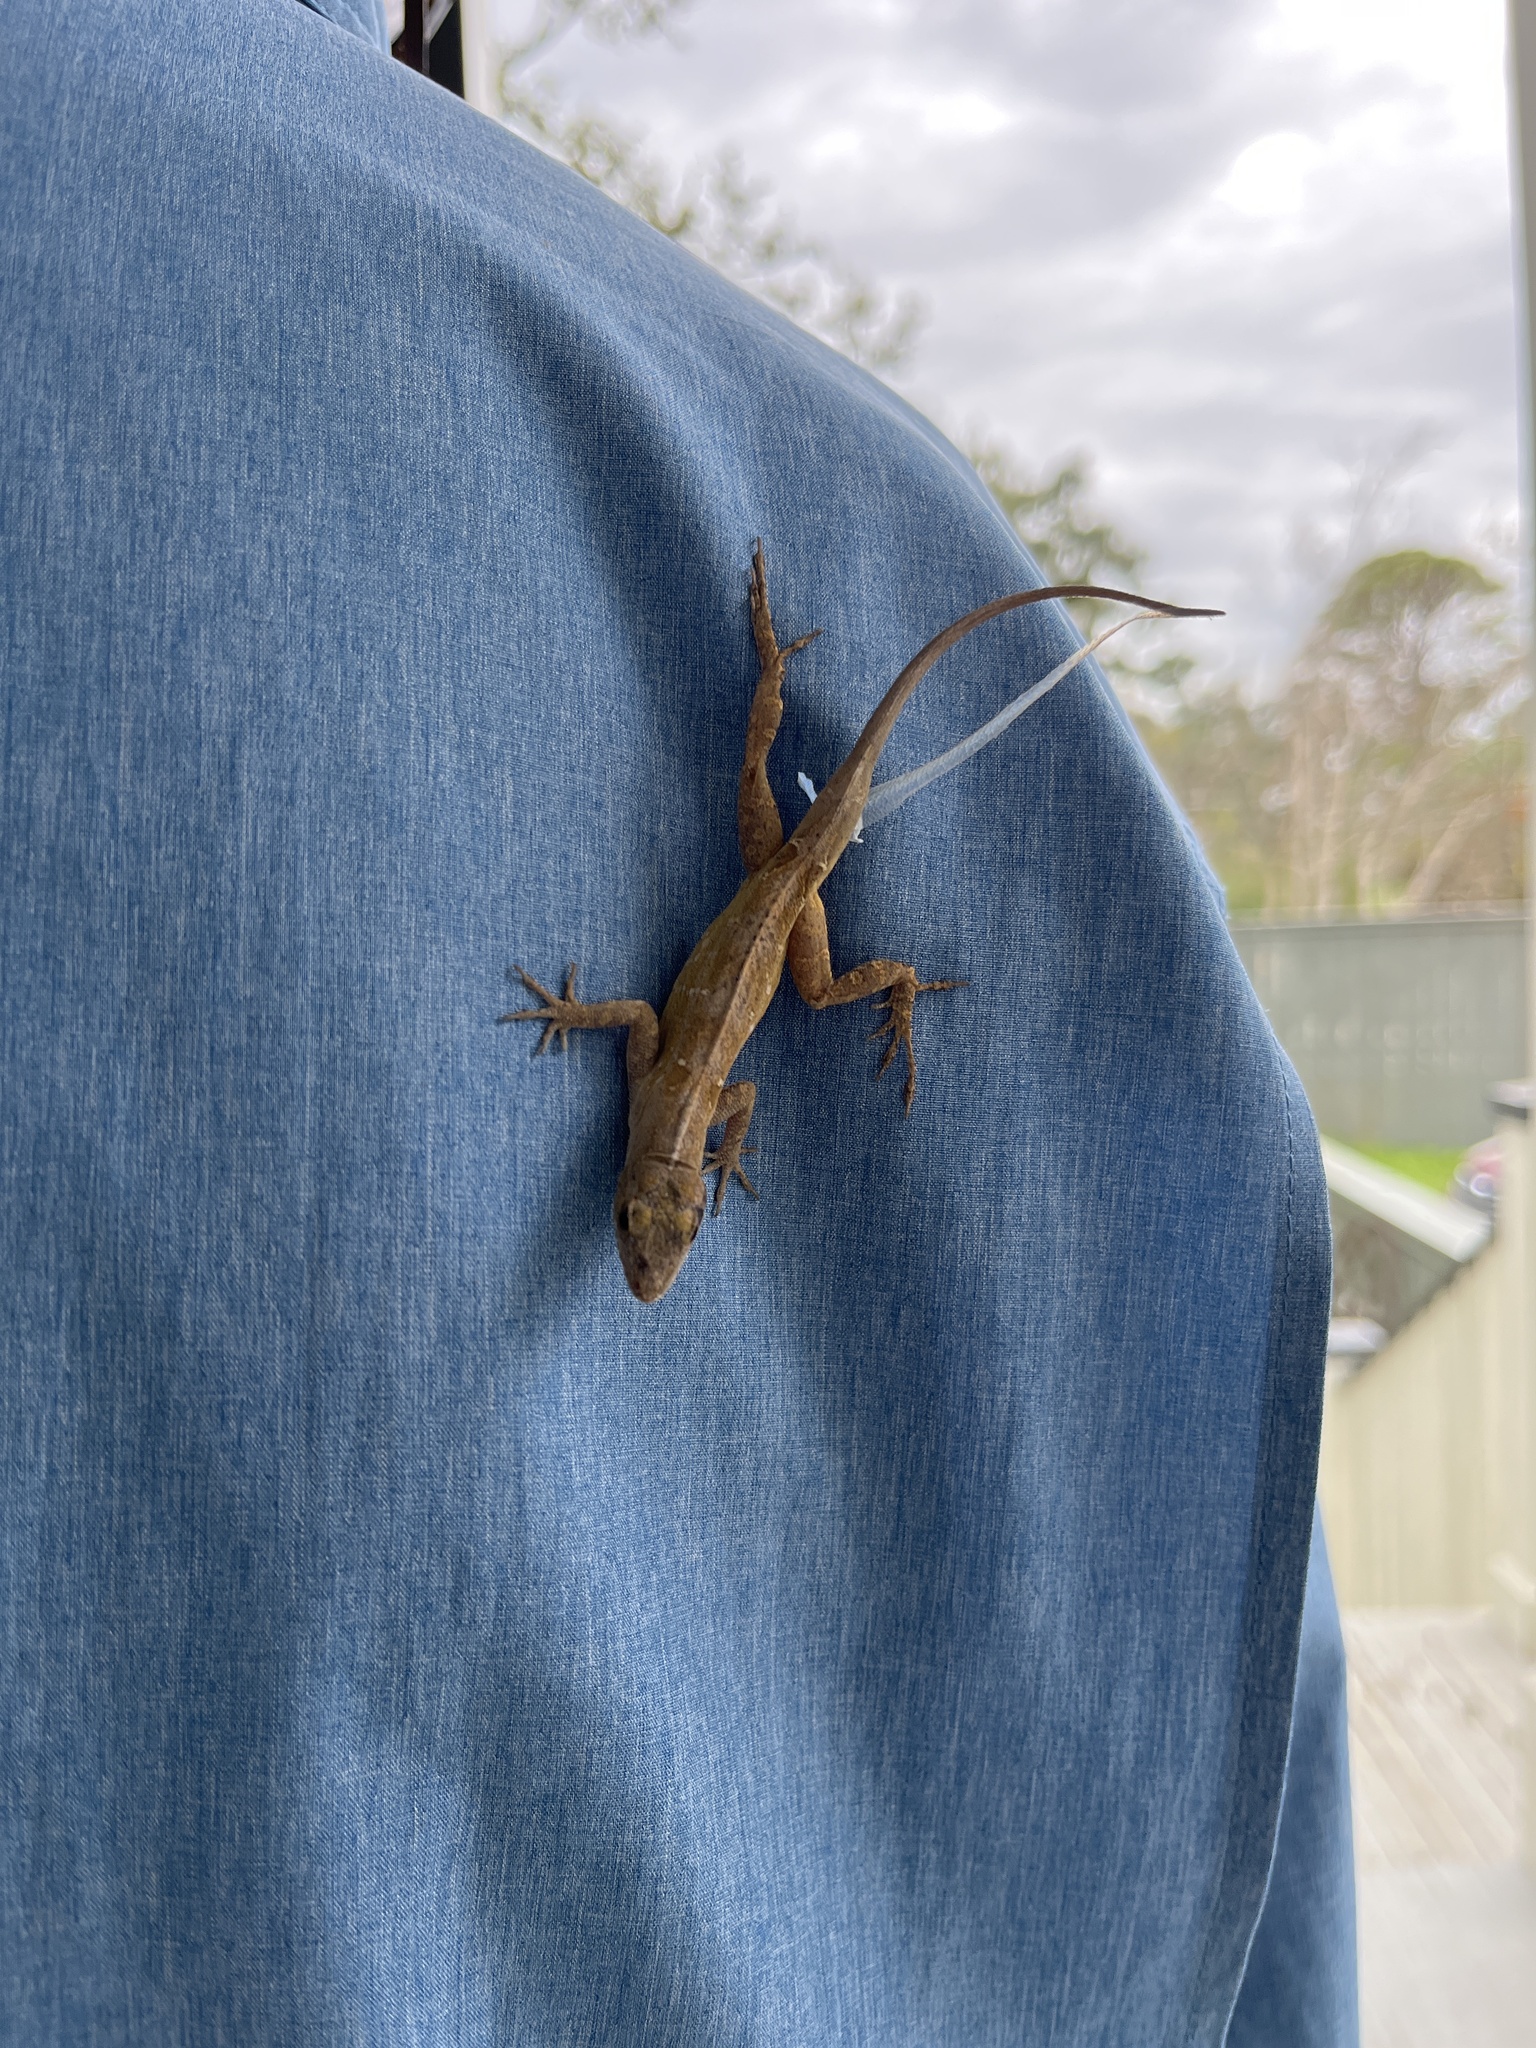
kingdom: Animalia
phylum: Chordata
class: Squamata
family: Dactyloidae
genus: Anolis
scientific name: Anolis sagrei
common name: Brown anole
